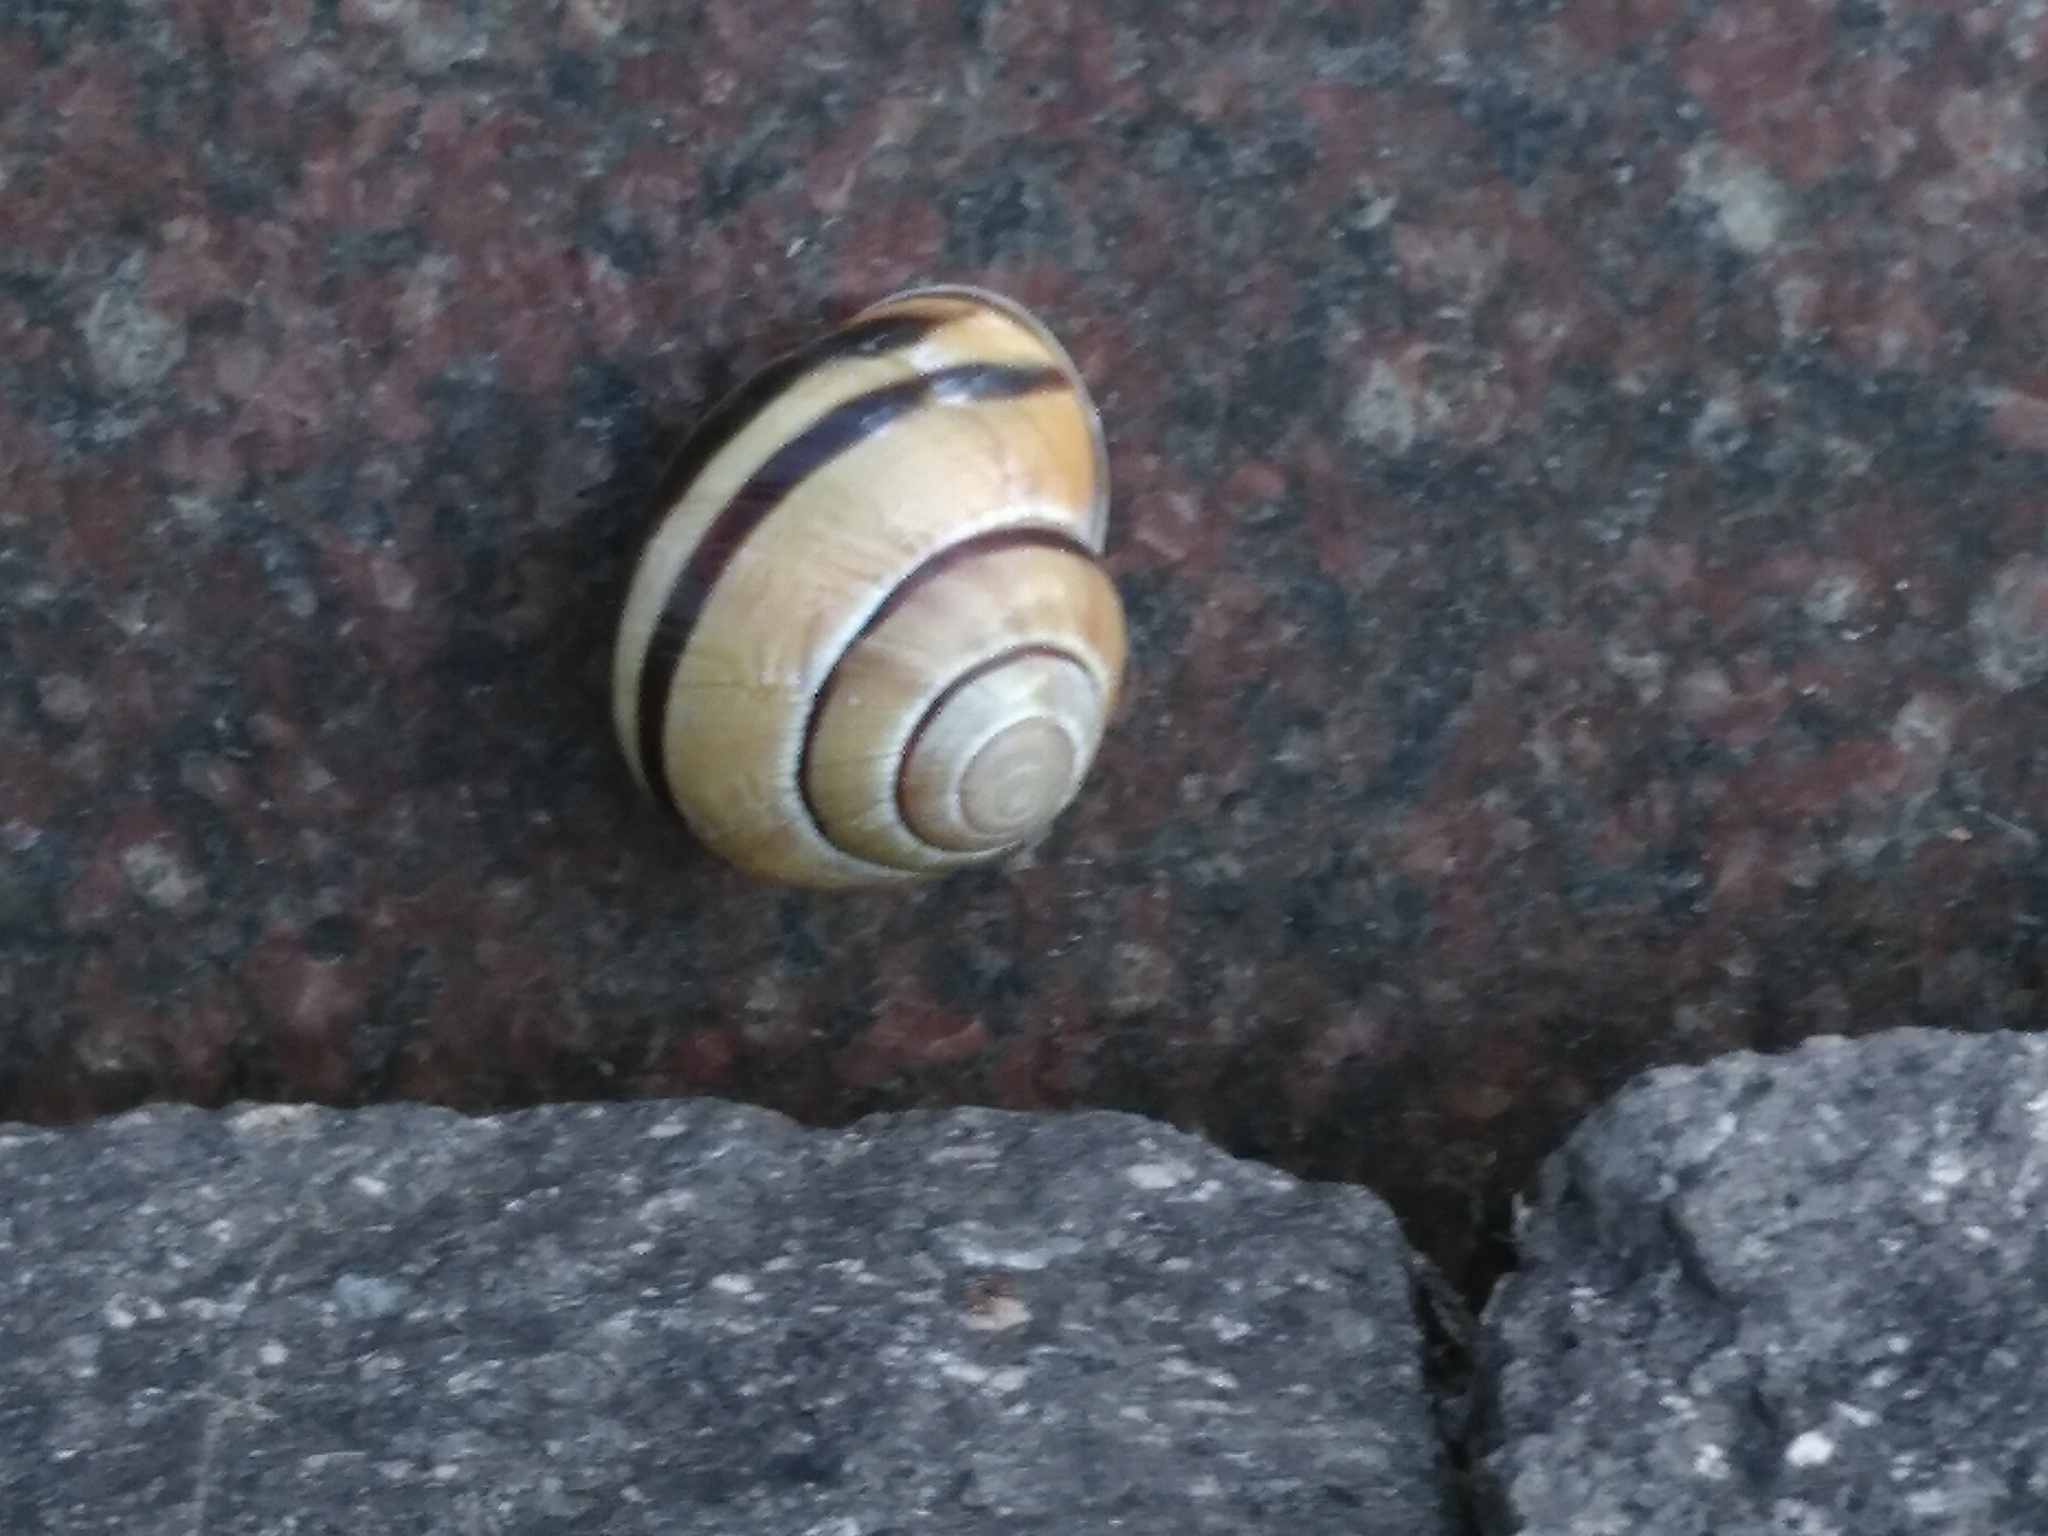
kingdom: Animalia
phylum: Mollusca
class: Gastropoda
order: Stylommatophora
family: Helicidae
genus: Cepaea
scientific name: Cepaea nemoralis
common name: Grovesnail
